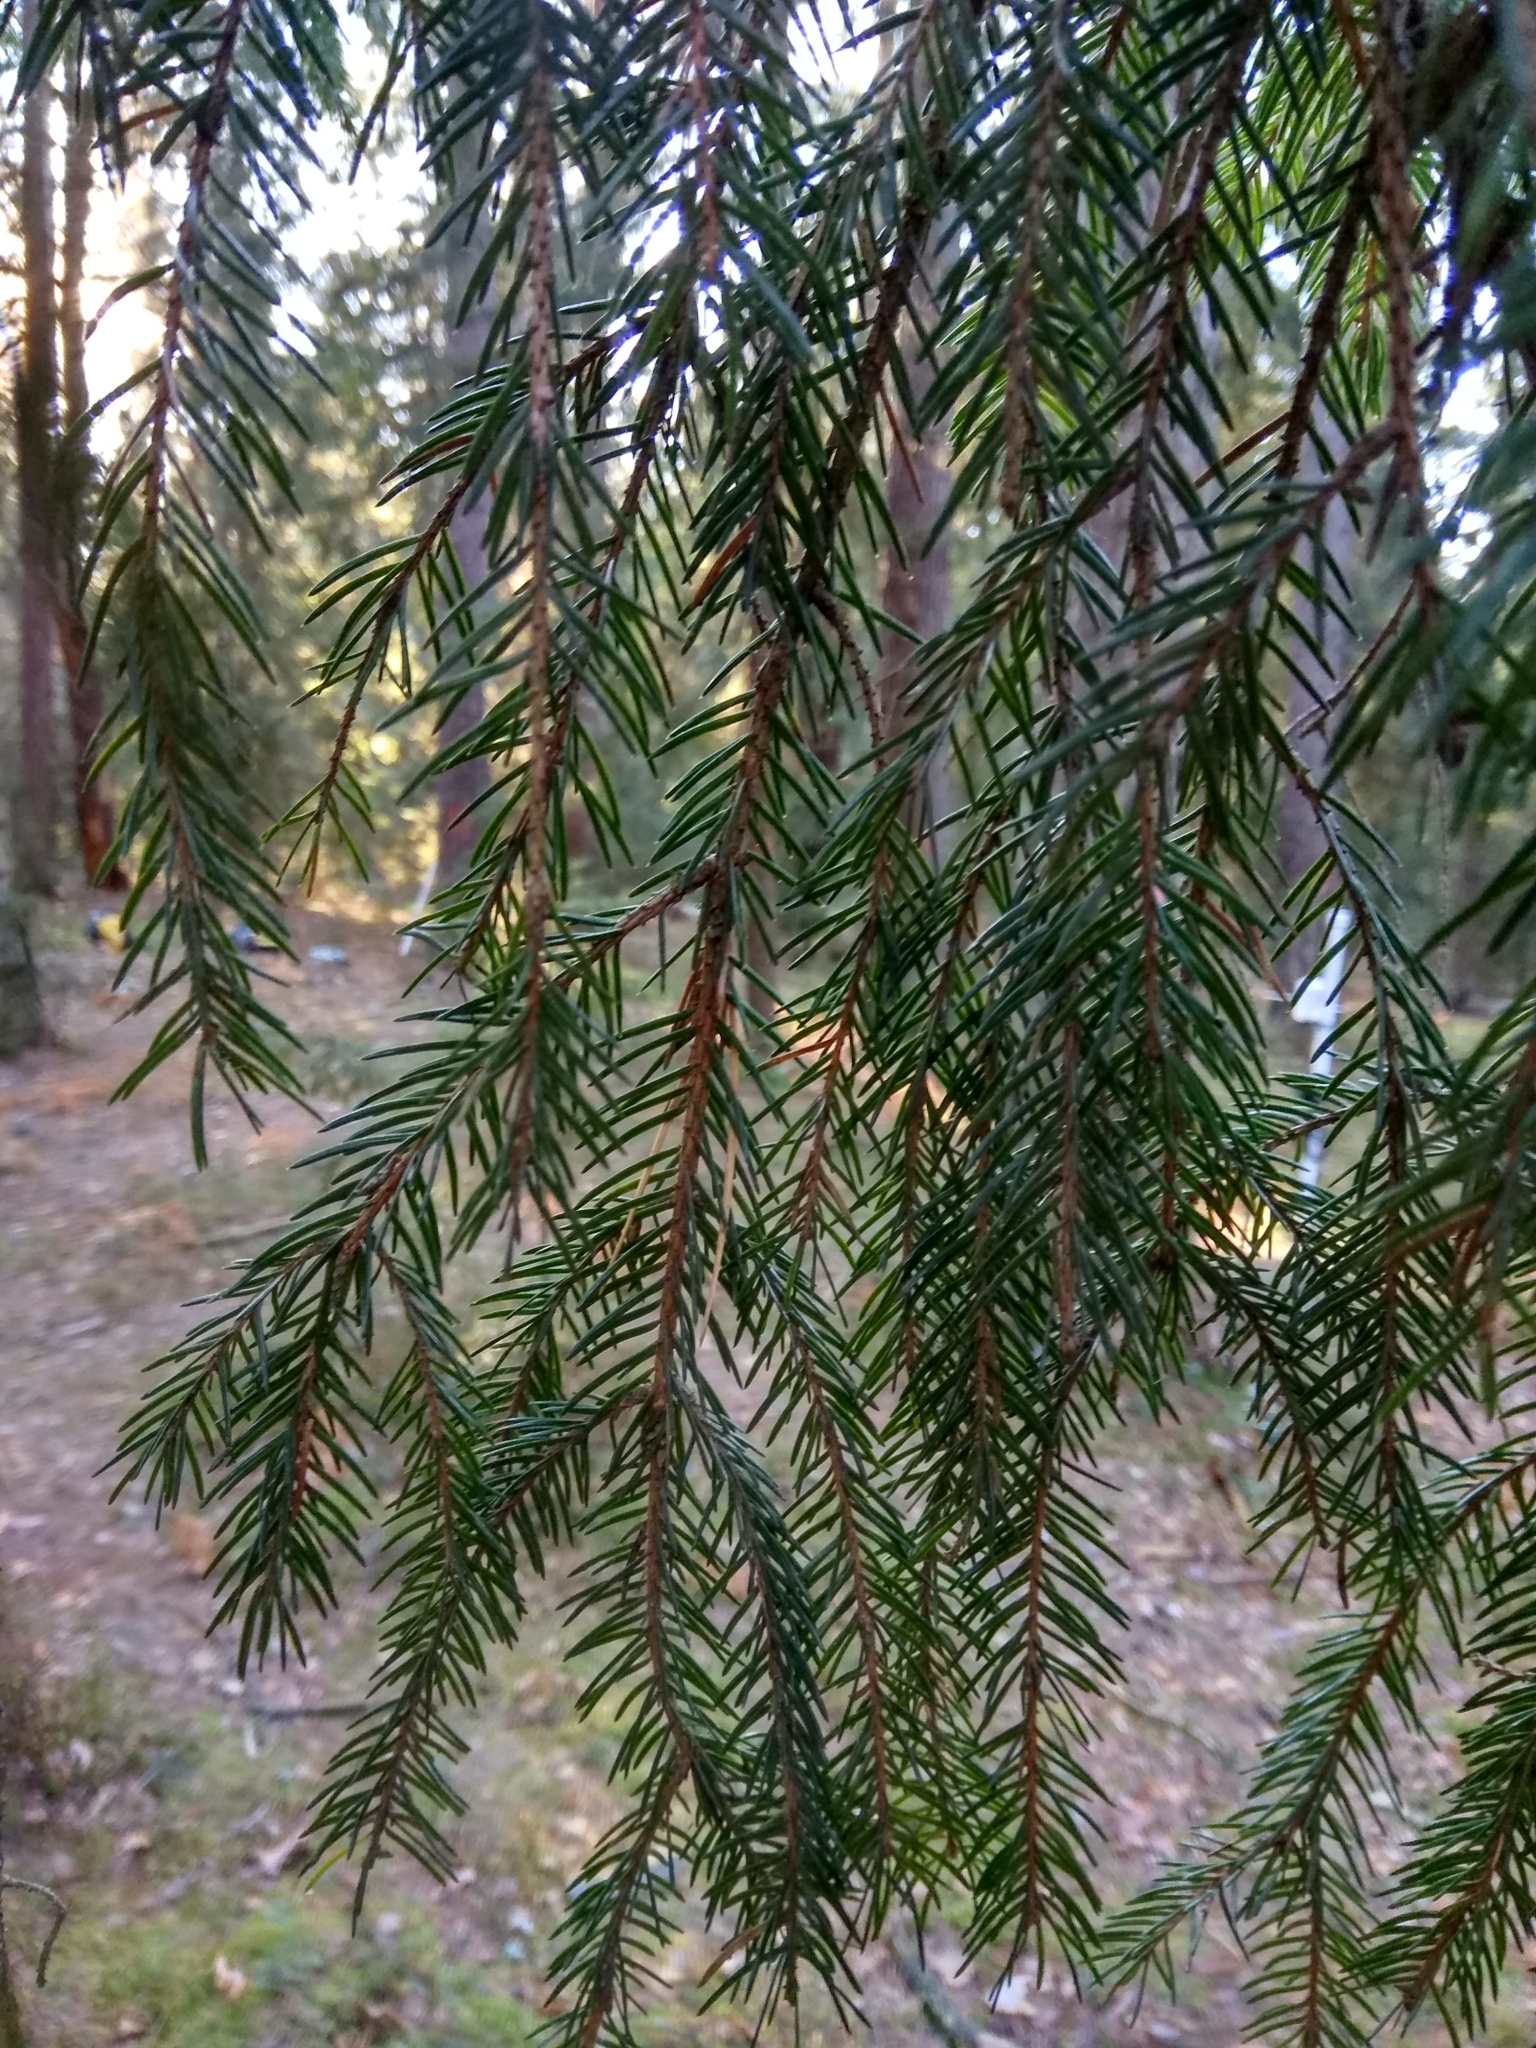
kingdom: Plantae
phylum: Tracheophyta
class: Pinopsida
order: Pinales
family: Pinaceae
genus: Picea
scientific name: Picea abies
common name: Norway spruce
